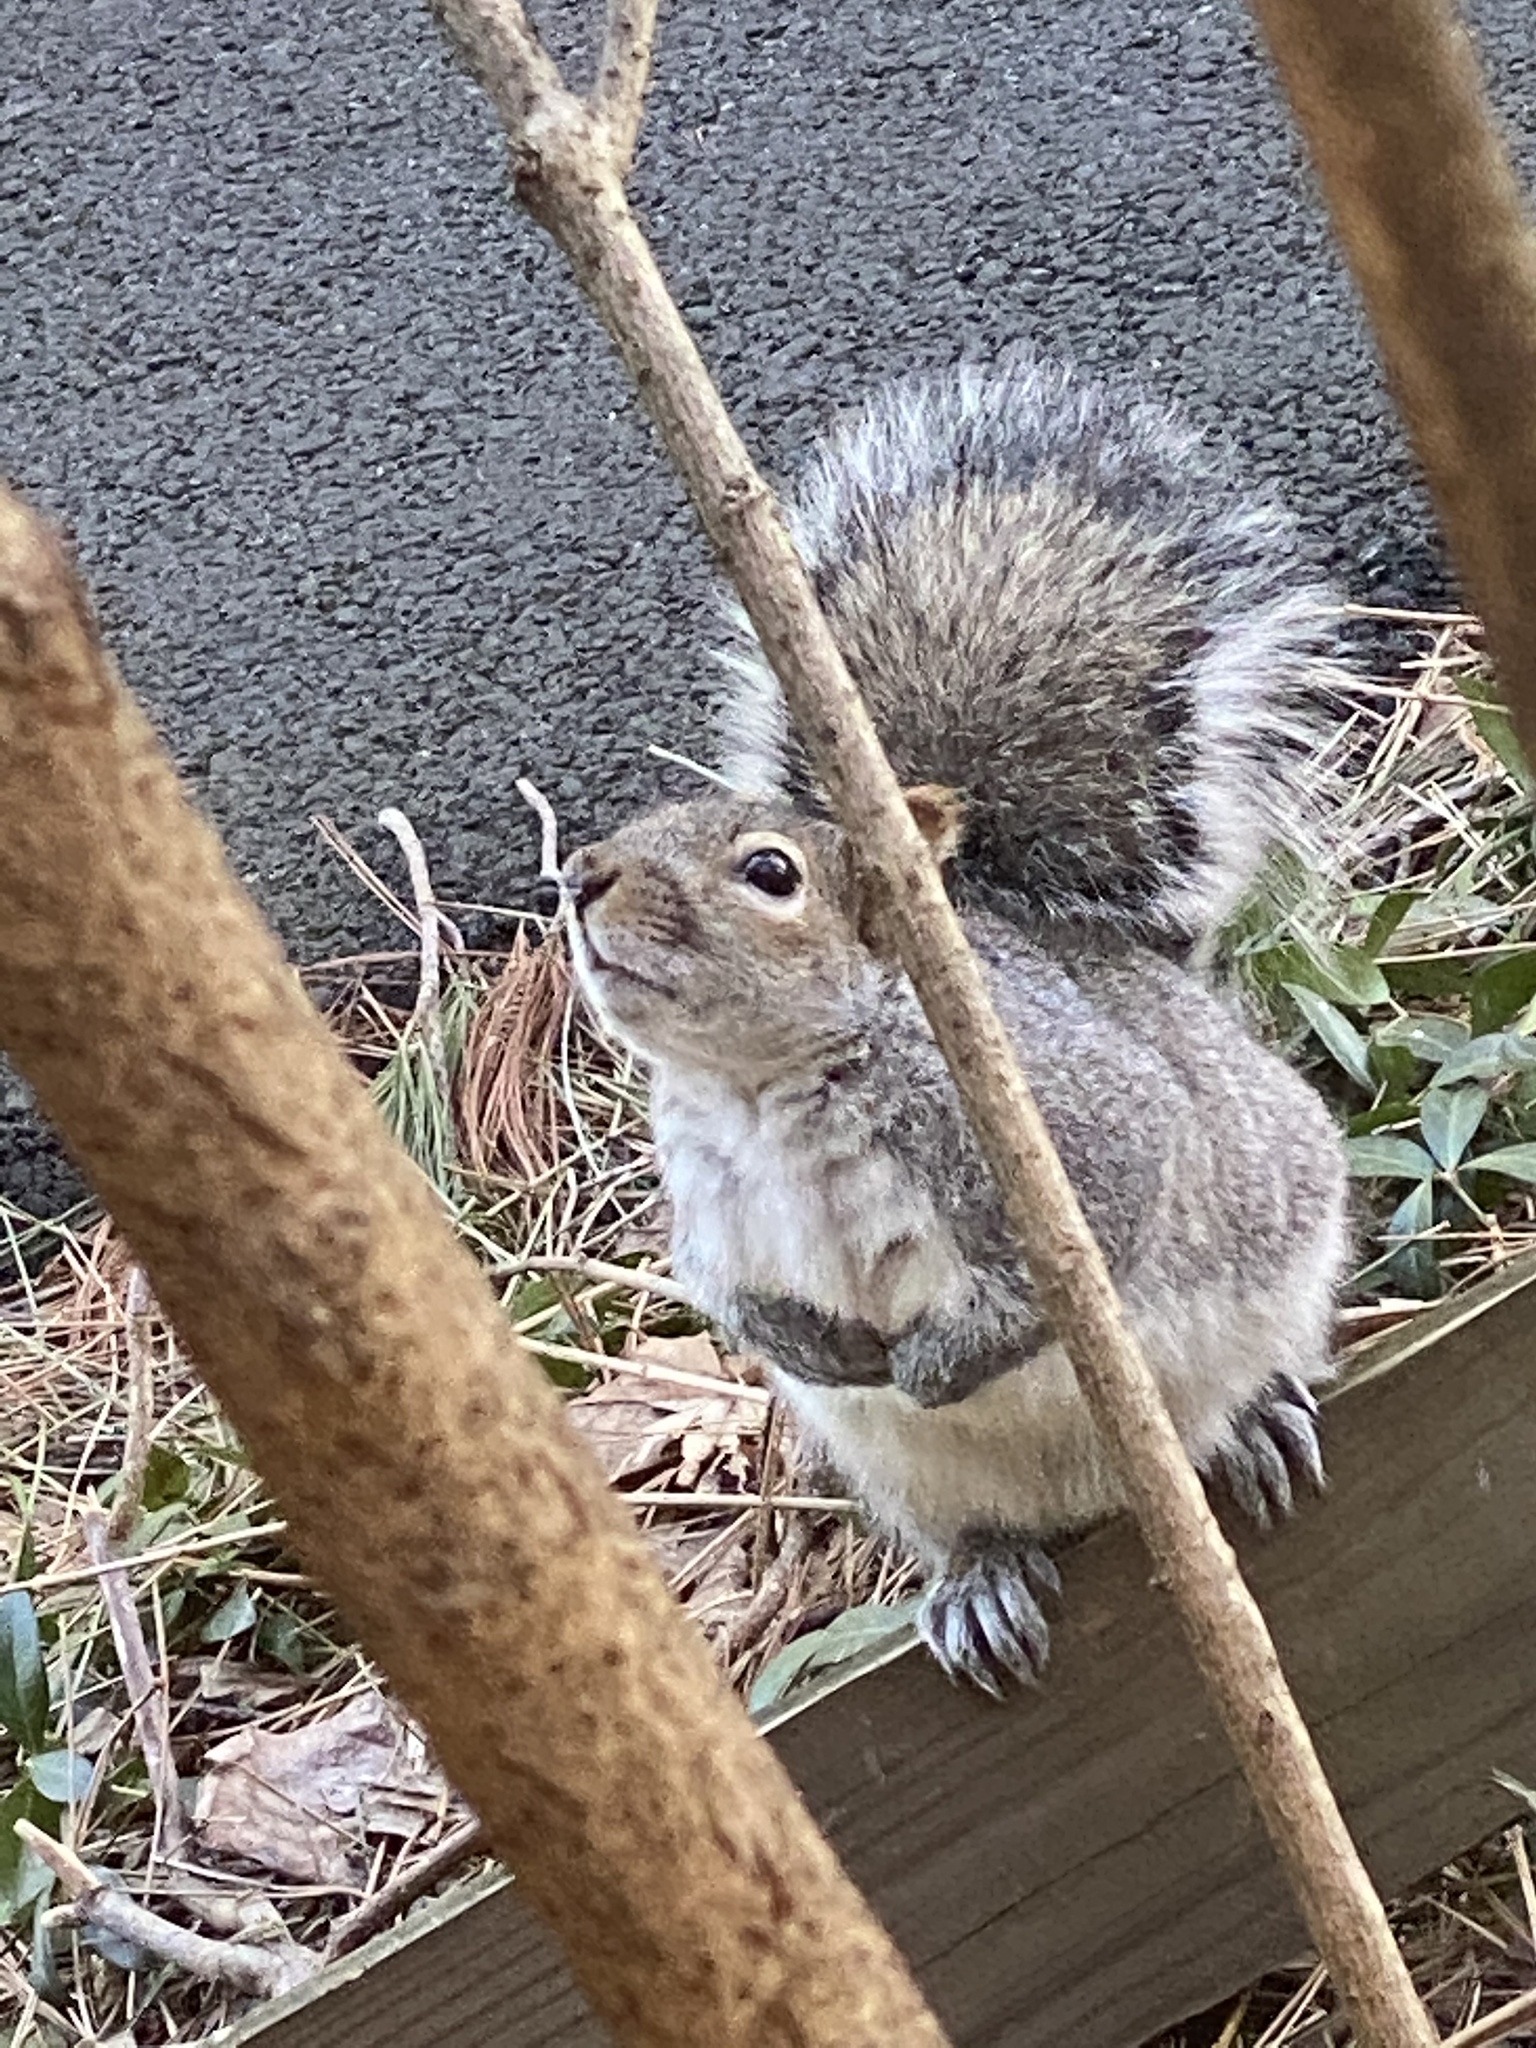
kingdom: Animalia
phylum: Chordata
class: Mammalia
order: Rodentia
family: Sciuridae
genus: Sciurus
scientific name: Sciurus carolinensis
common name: Eastern gray squirrel
